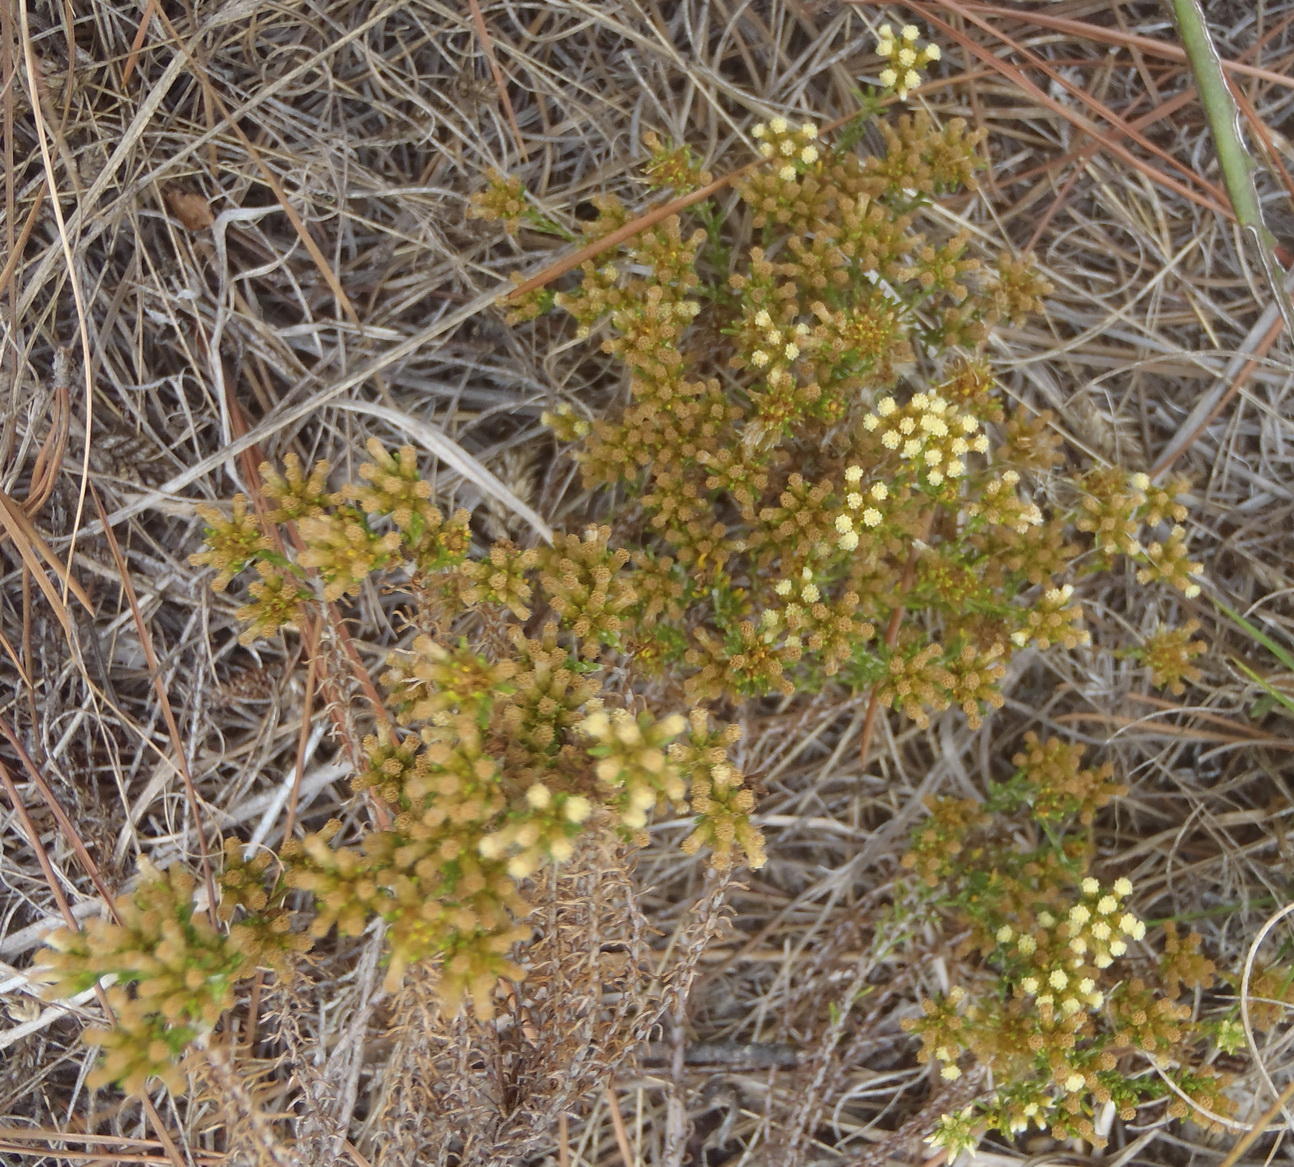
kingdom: Plantae
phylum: Tracheophyta
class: Magnoliopsida
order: Asterales
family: Asteraceae
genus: Helichrysum
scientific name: Helichrysum asperum
